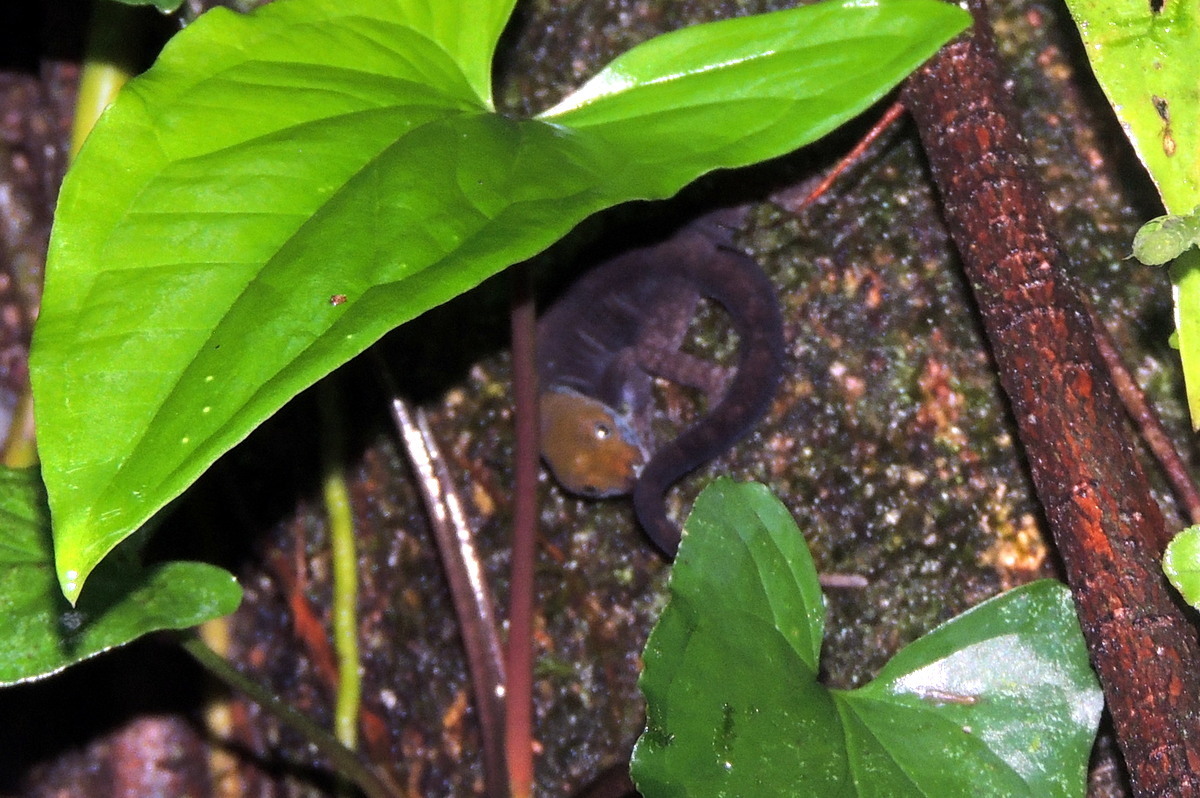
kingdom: Animalia
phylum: Chordata
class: Squamata
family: Sphaerodactylidae
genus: Gonatodes
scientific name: Gonatodes albogularis
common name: Yellow-headed gecko
